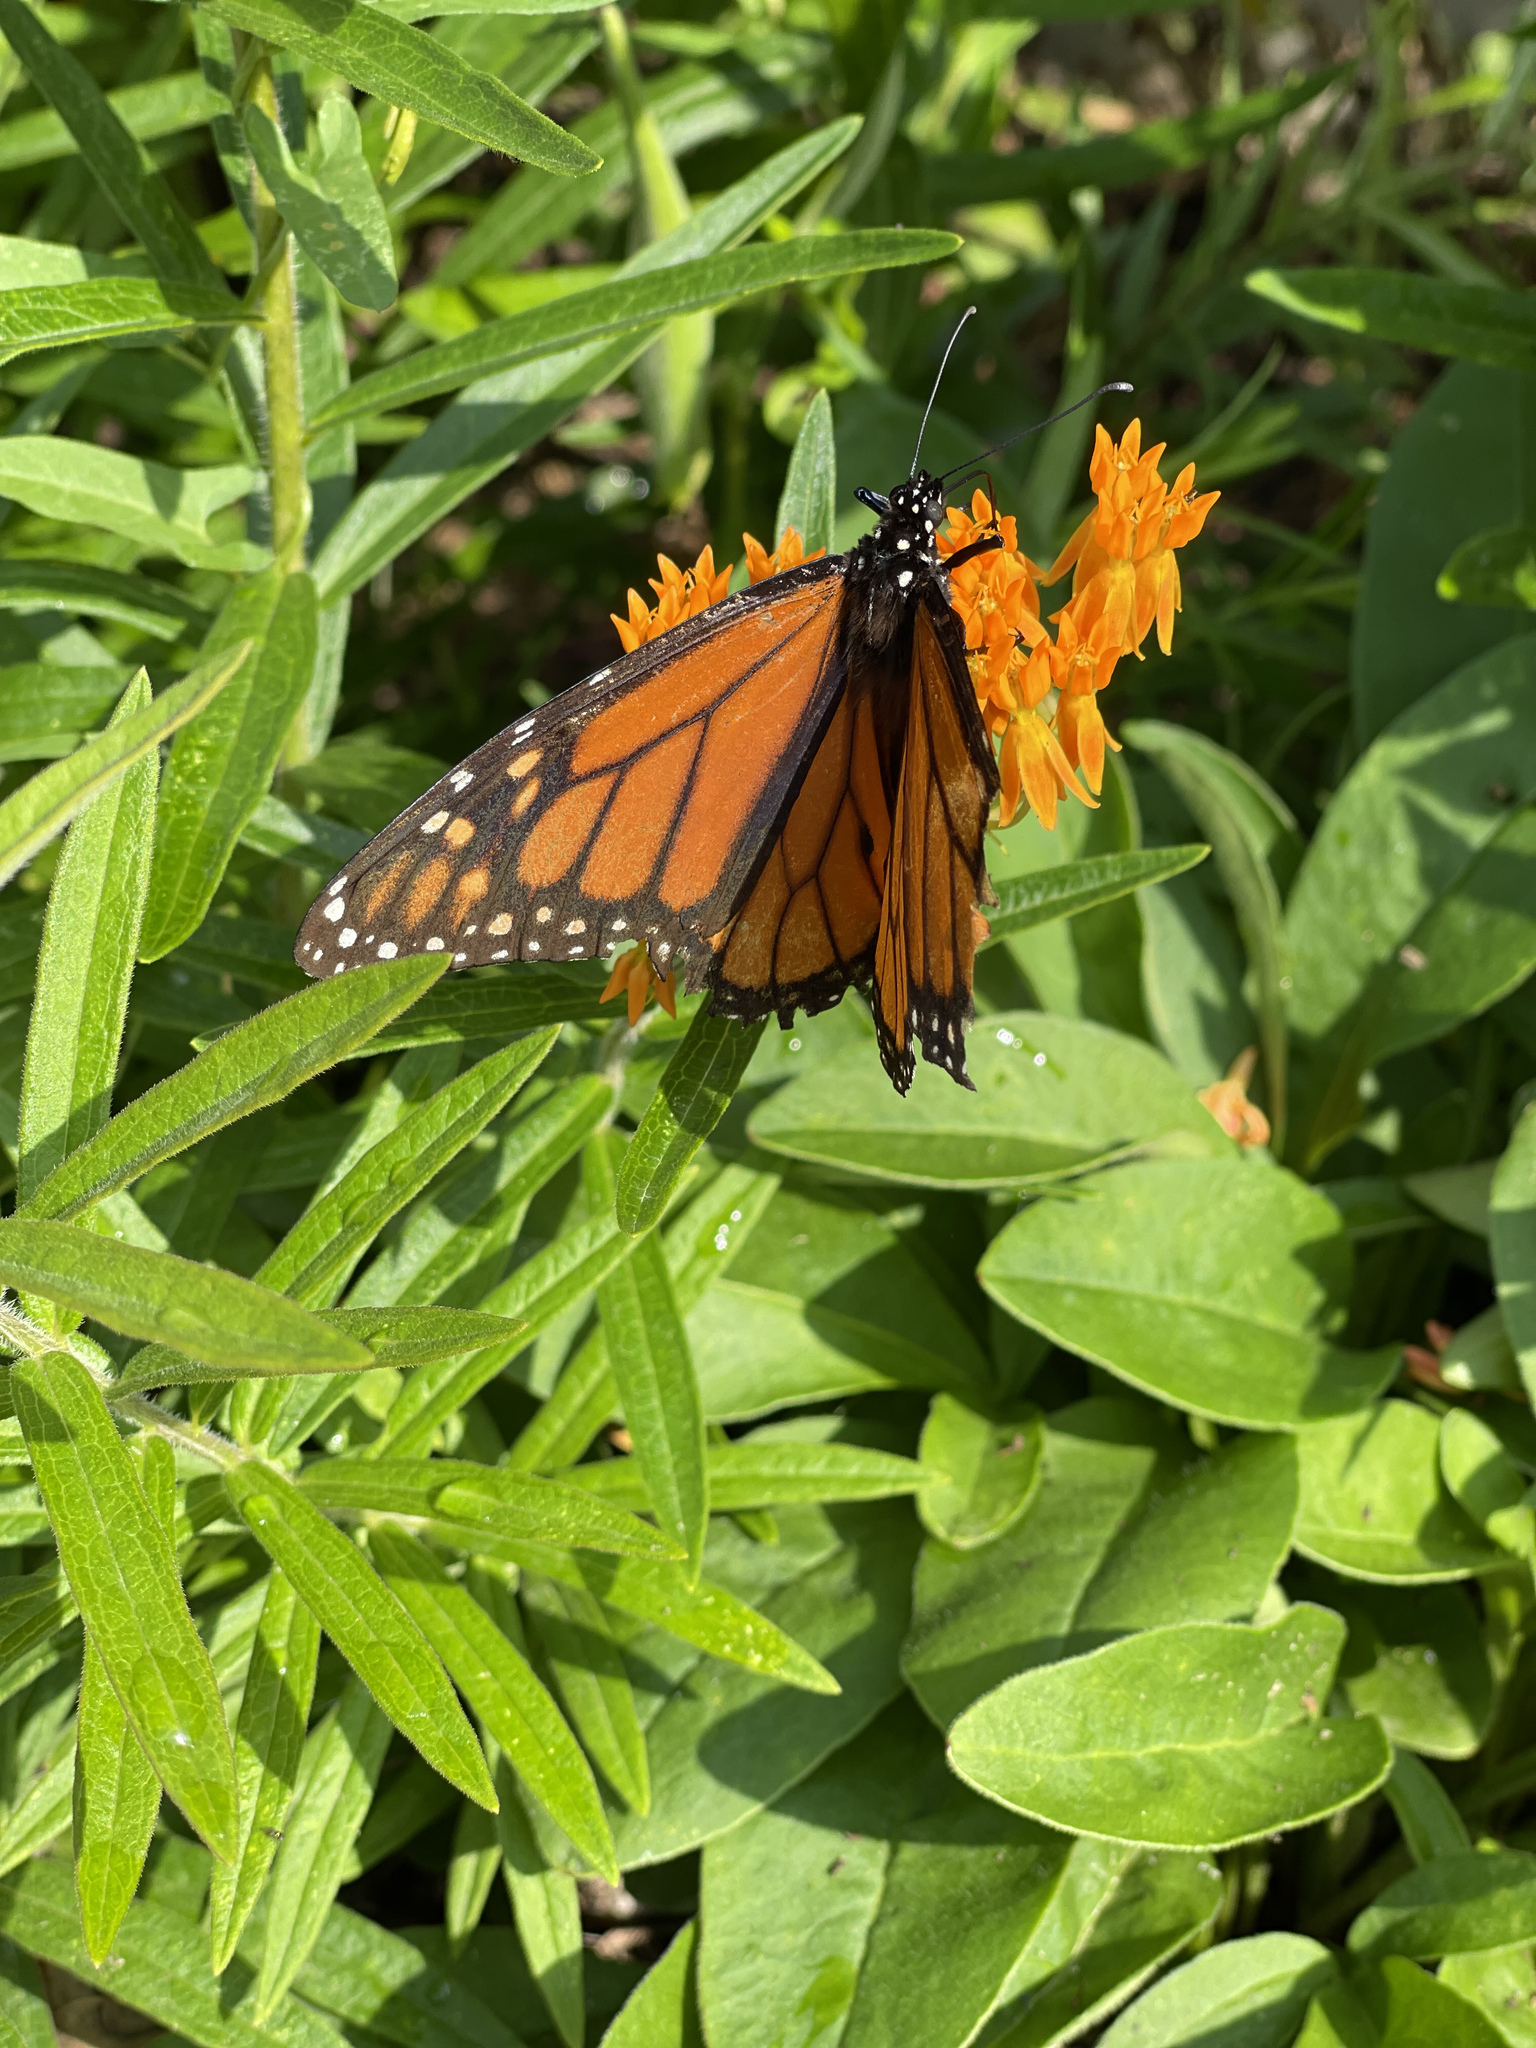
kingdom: Animalia
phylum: Arthropoda
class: Insecta
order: Lepidoptera
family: Nymphalidae
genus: Danaus
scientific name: Danaus plexippus
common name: Monarch
